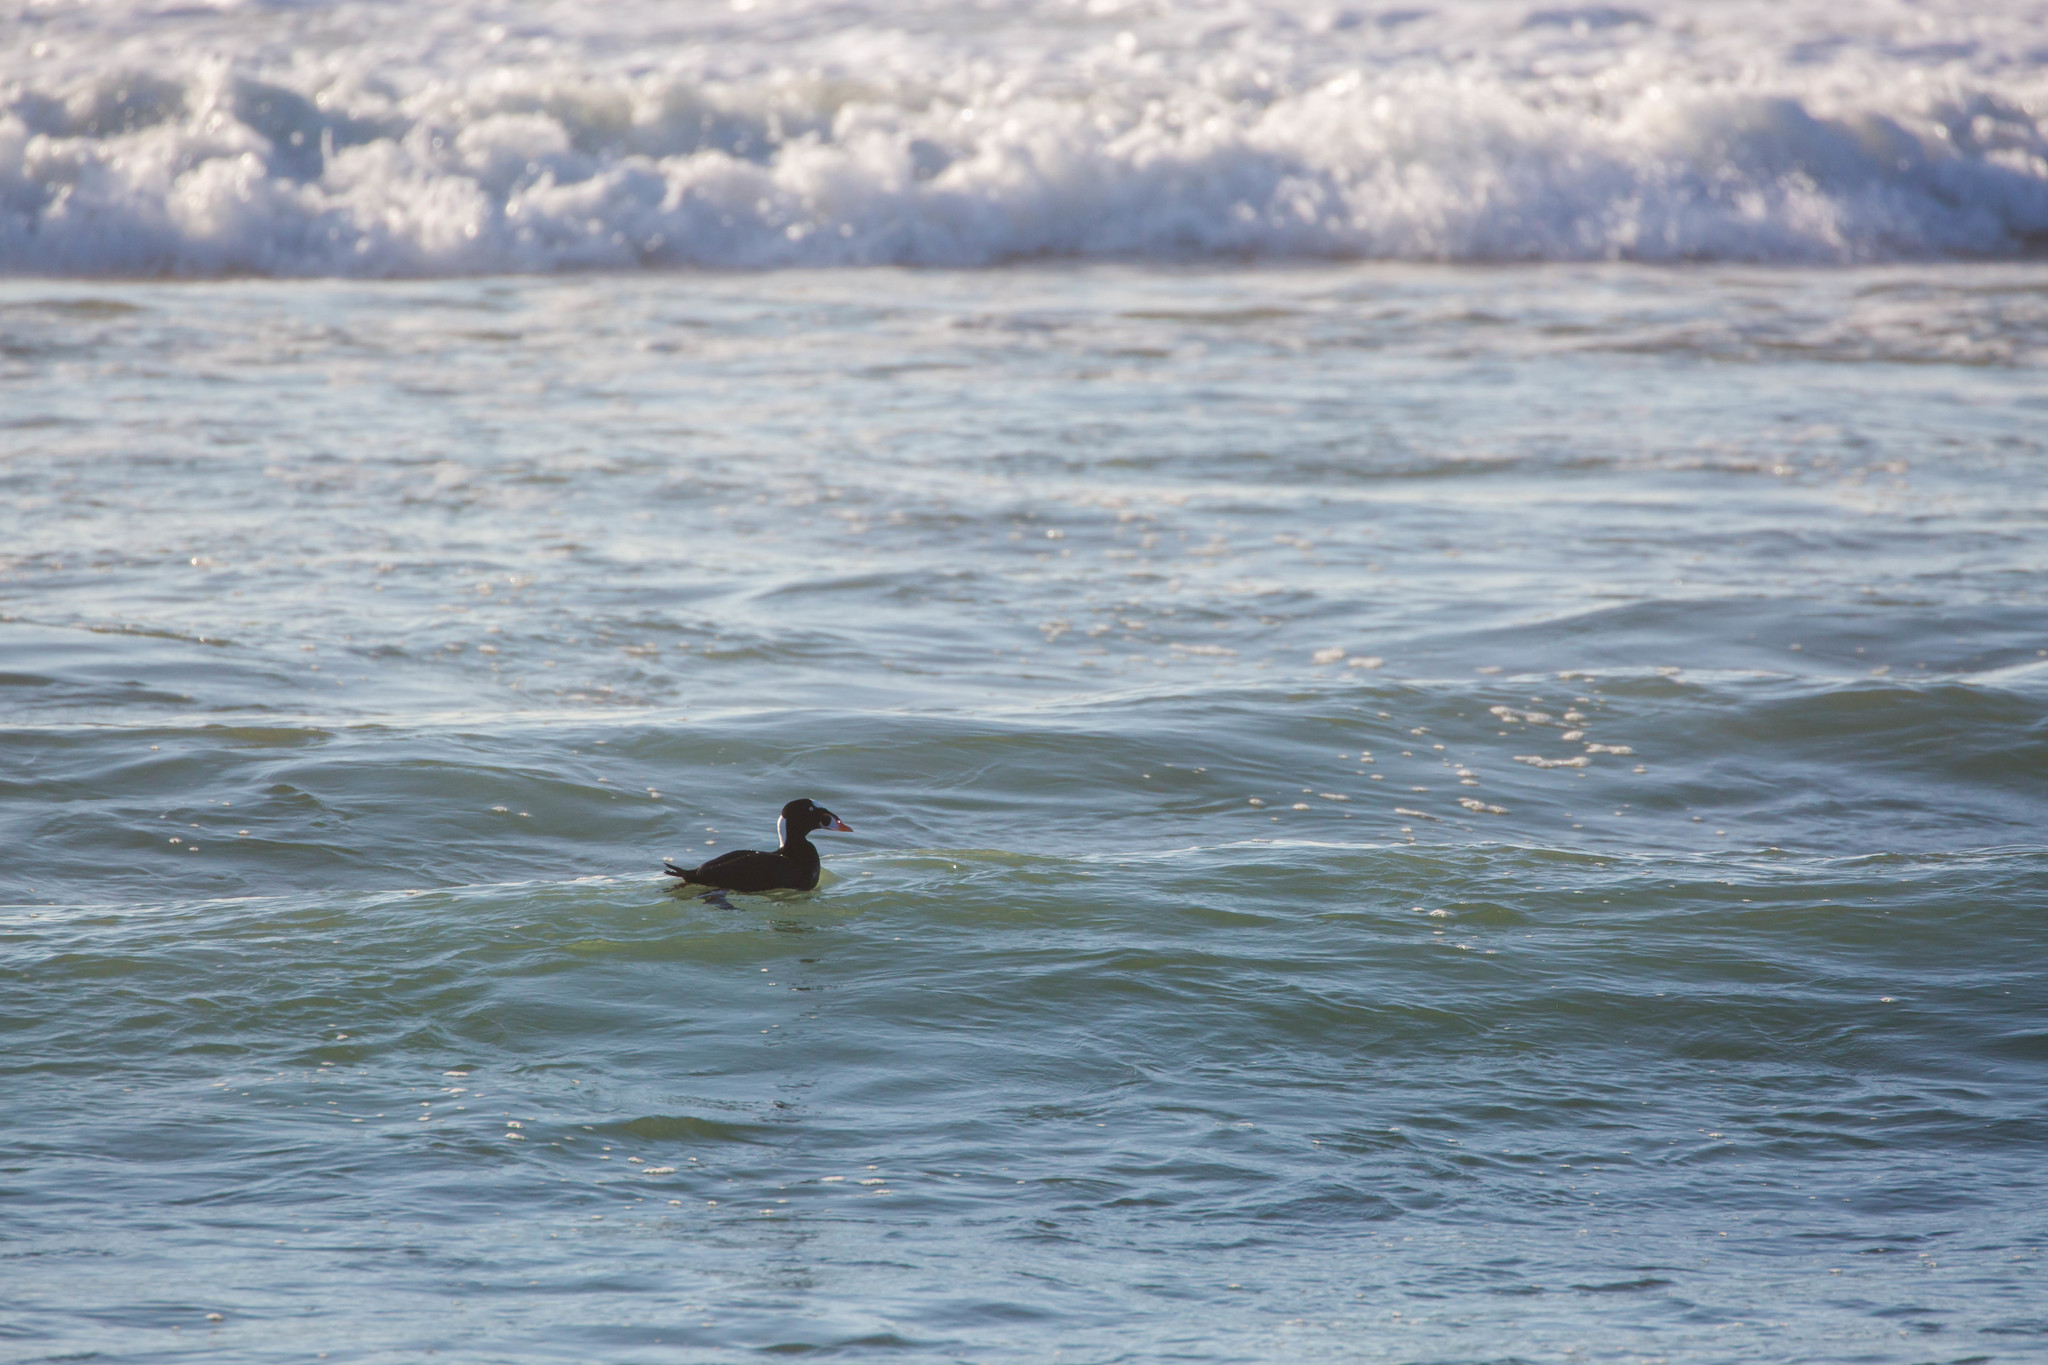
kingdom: Animalia
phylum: Chordata
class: Aves
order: Anseriformes
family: Anatidae
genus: Melanitta
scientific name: Melanitta perspicillata
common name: Surf scoter
